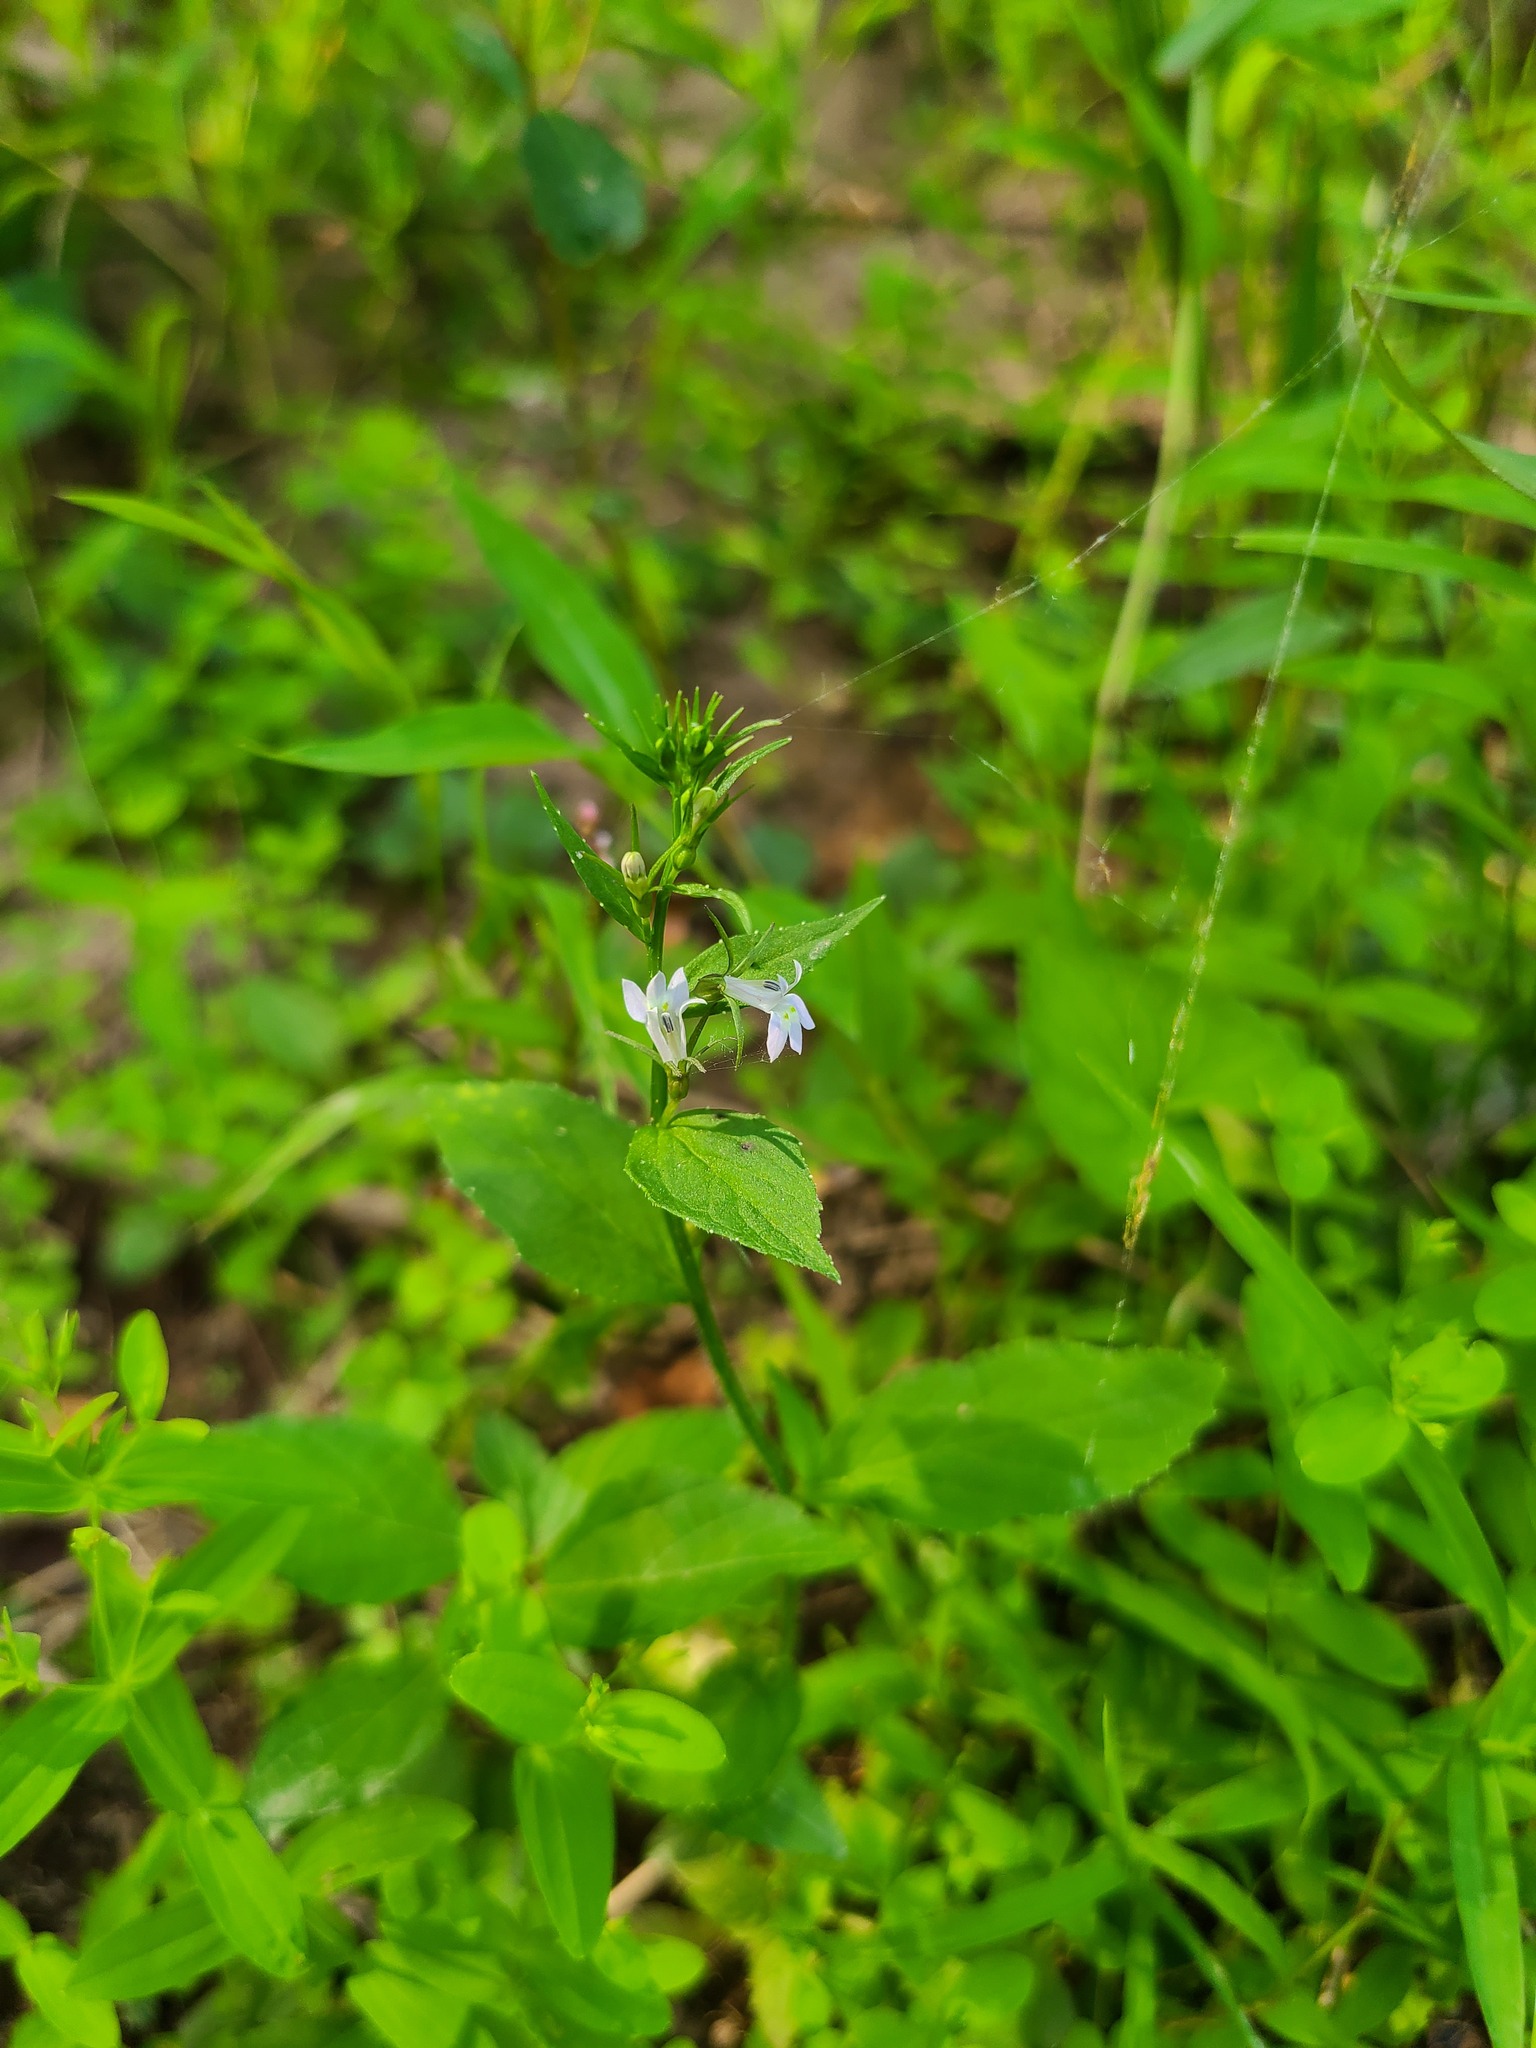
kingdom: Plantae
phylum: Tracheophyta
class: Magnoliopsida
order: Asterales
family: Campanulaceae
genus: Lobelia
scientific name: Lobelia inflata
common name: Indian tobacco
